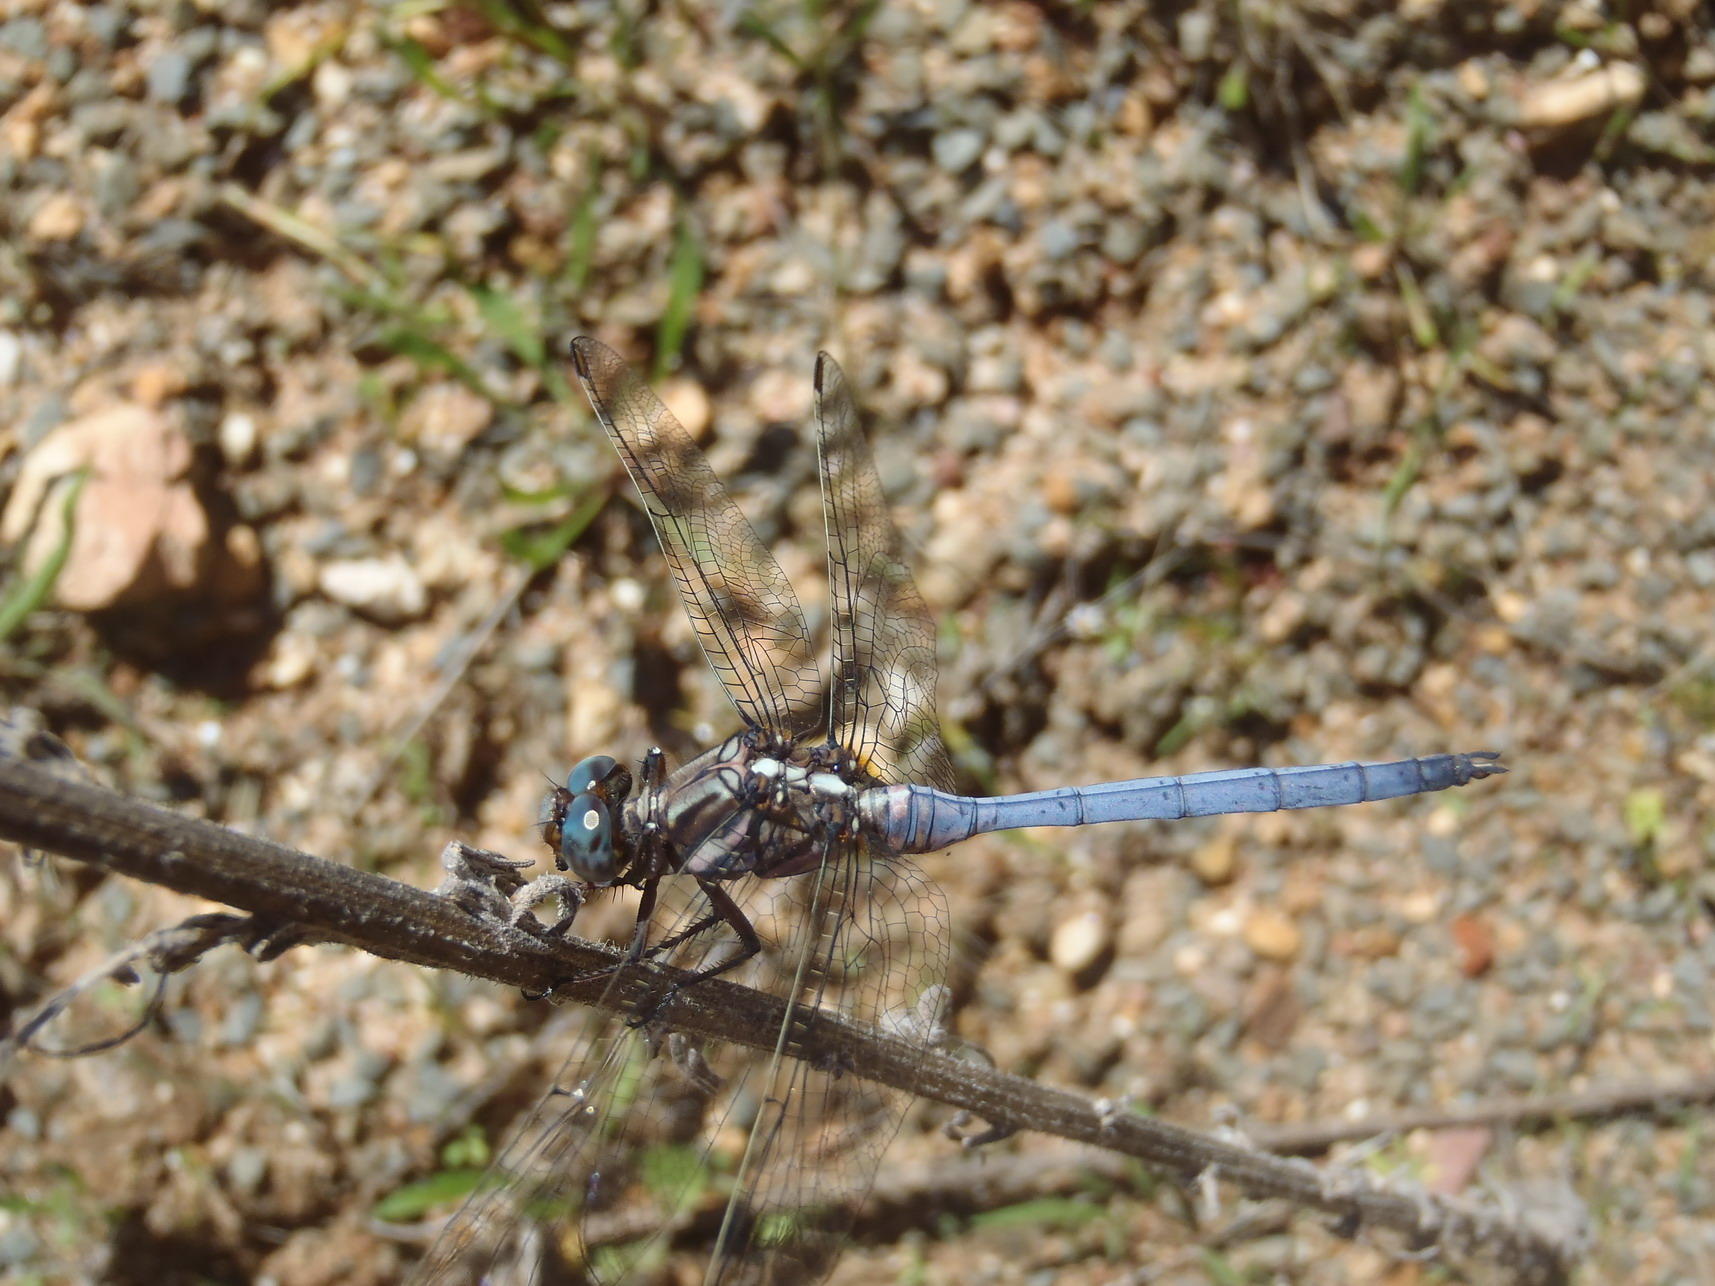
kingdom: Animalia
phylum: Arthropoda
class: Insecta
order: Odonata
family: Libellulidae
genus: Orthetrum
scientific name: Orthetrum caffrum
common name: Two-striped skimmer
